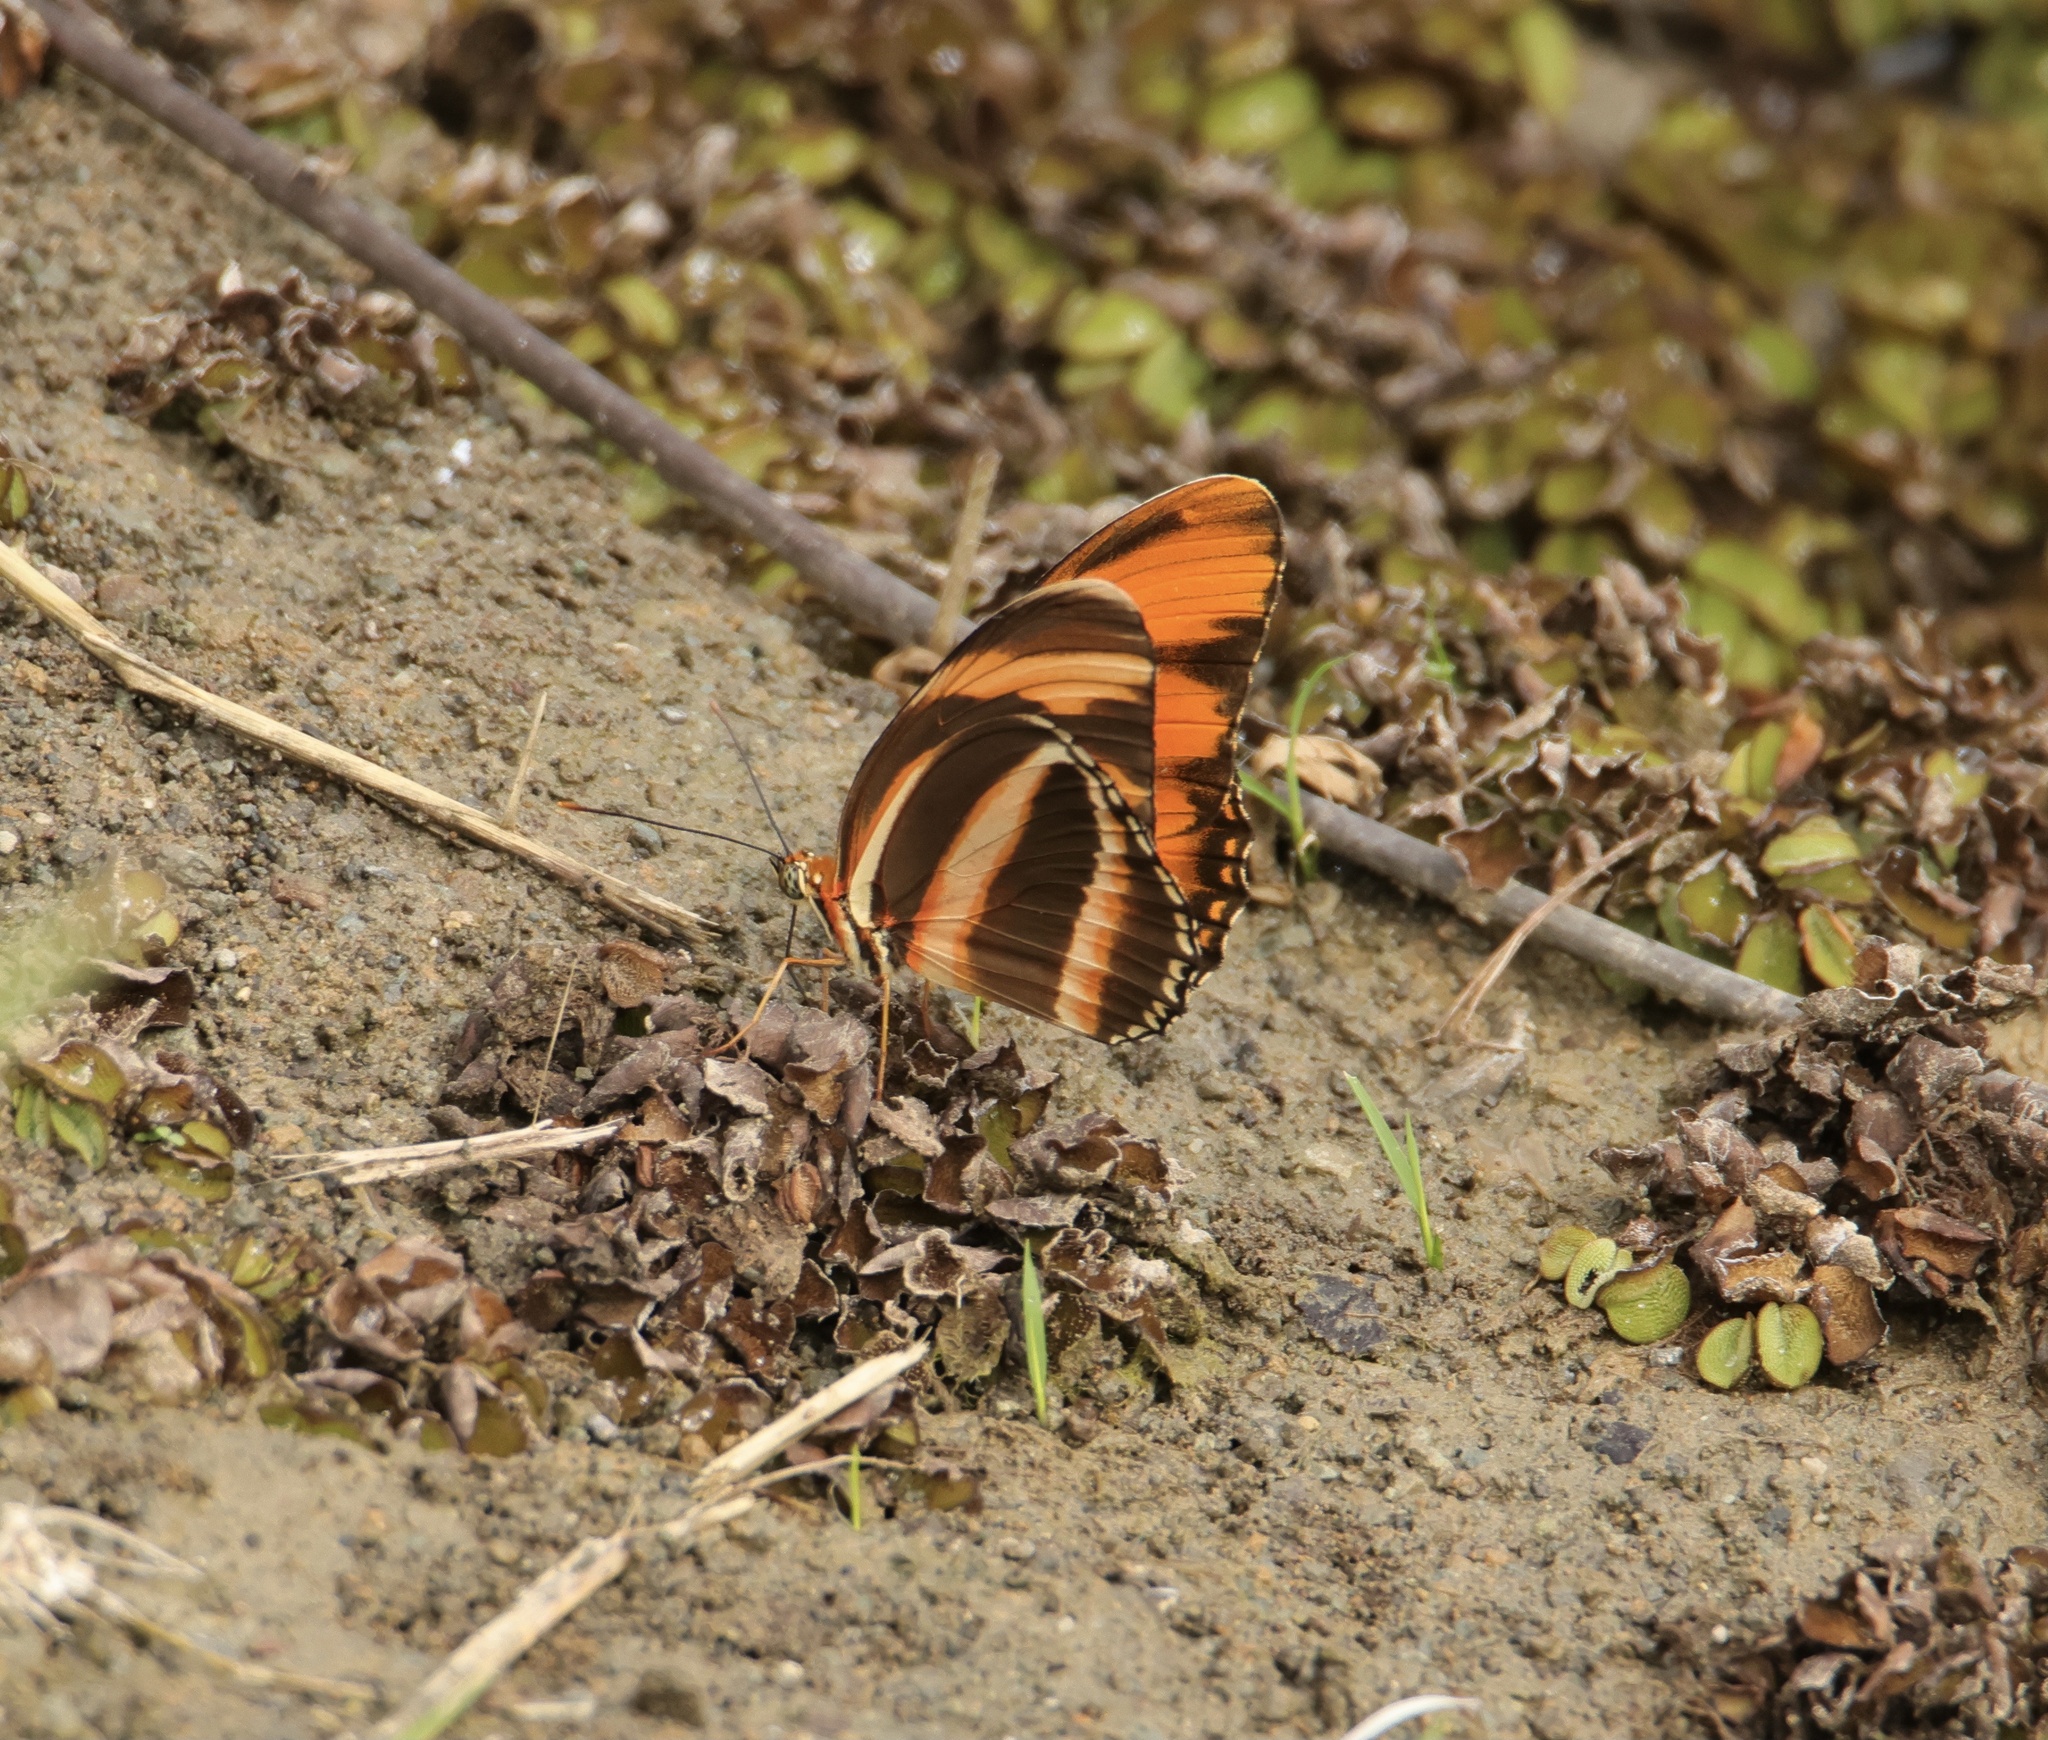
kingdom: Animalia
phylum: Arthropoda
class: Insecta
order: Lepidoptera
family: Nymphalidae
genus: Dryadula
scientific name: Dryadula phaetusa
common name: Banded orange heliconian
